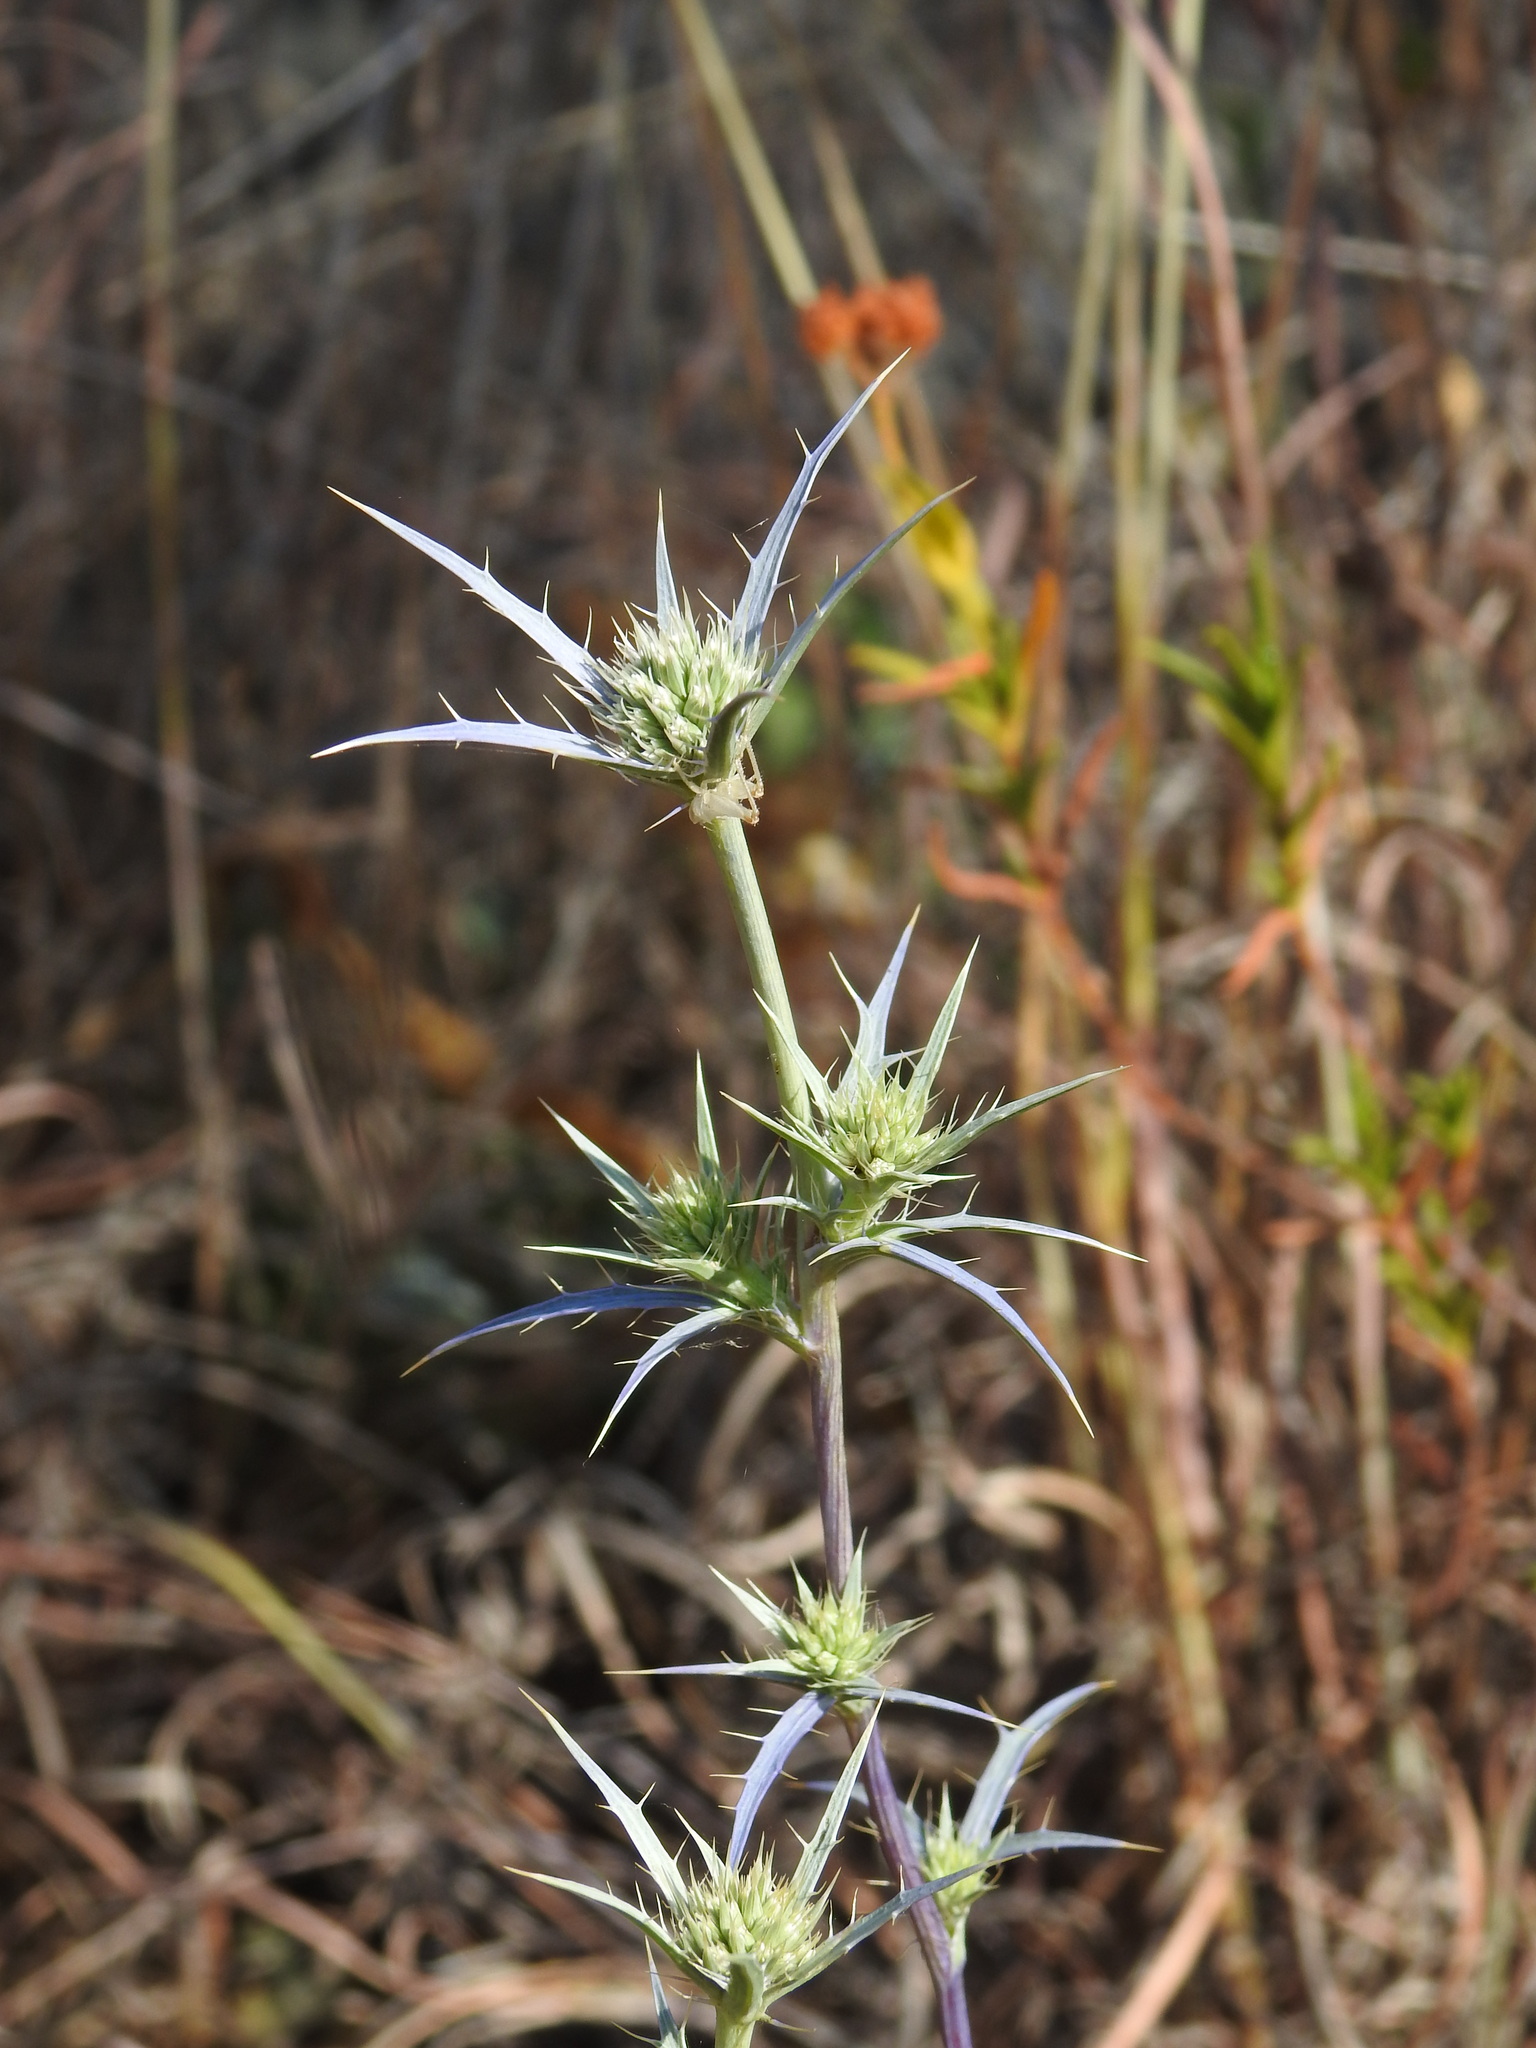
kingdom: Plantae
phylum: Tracheophyta
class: Magnoliopsida
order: Apiales
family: Apiaceae
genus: Eryngium
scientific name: Eryngium dilatatum
